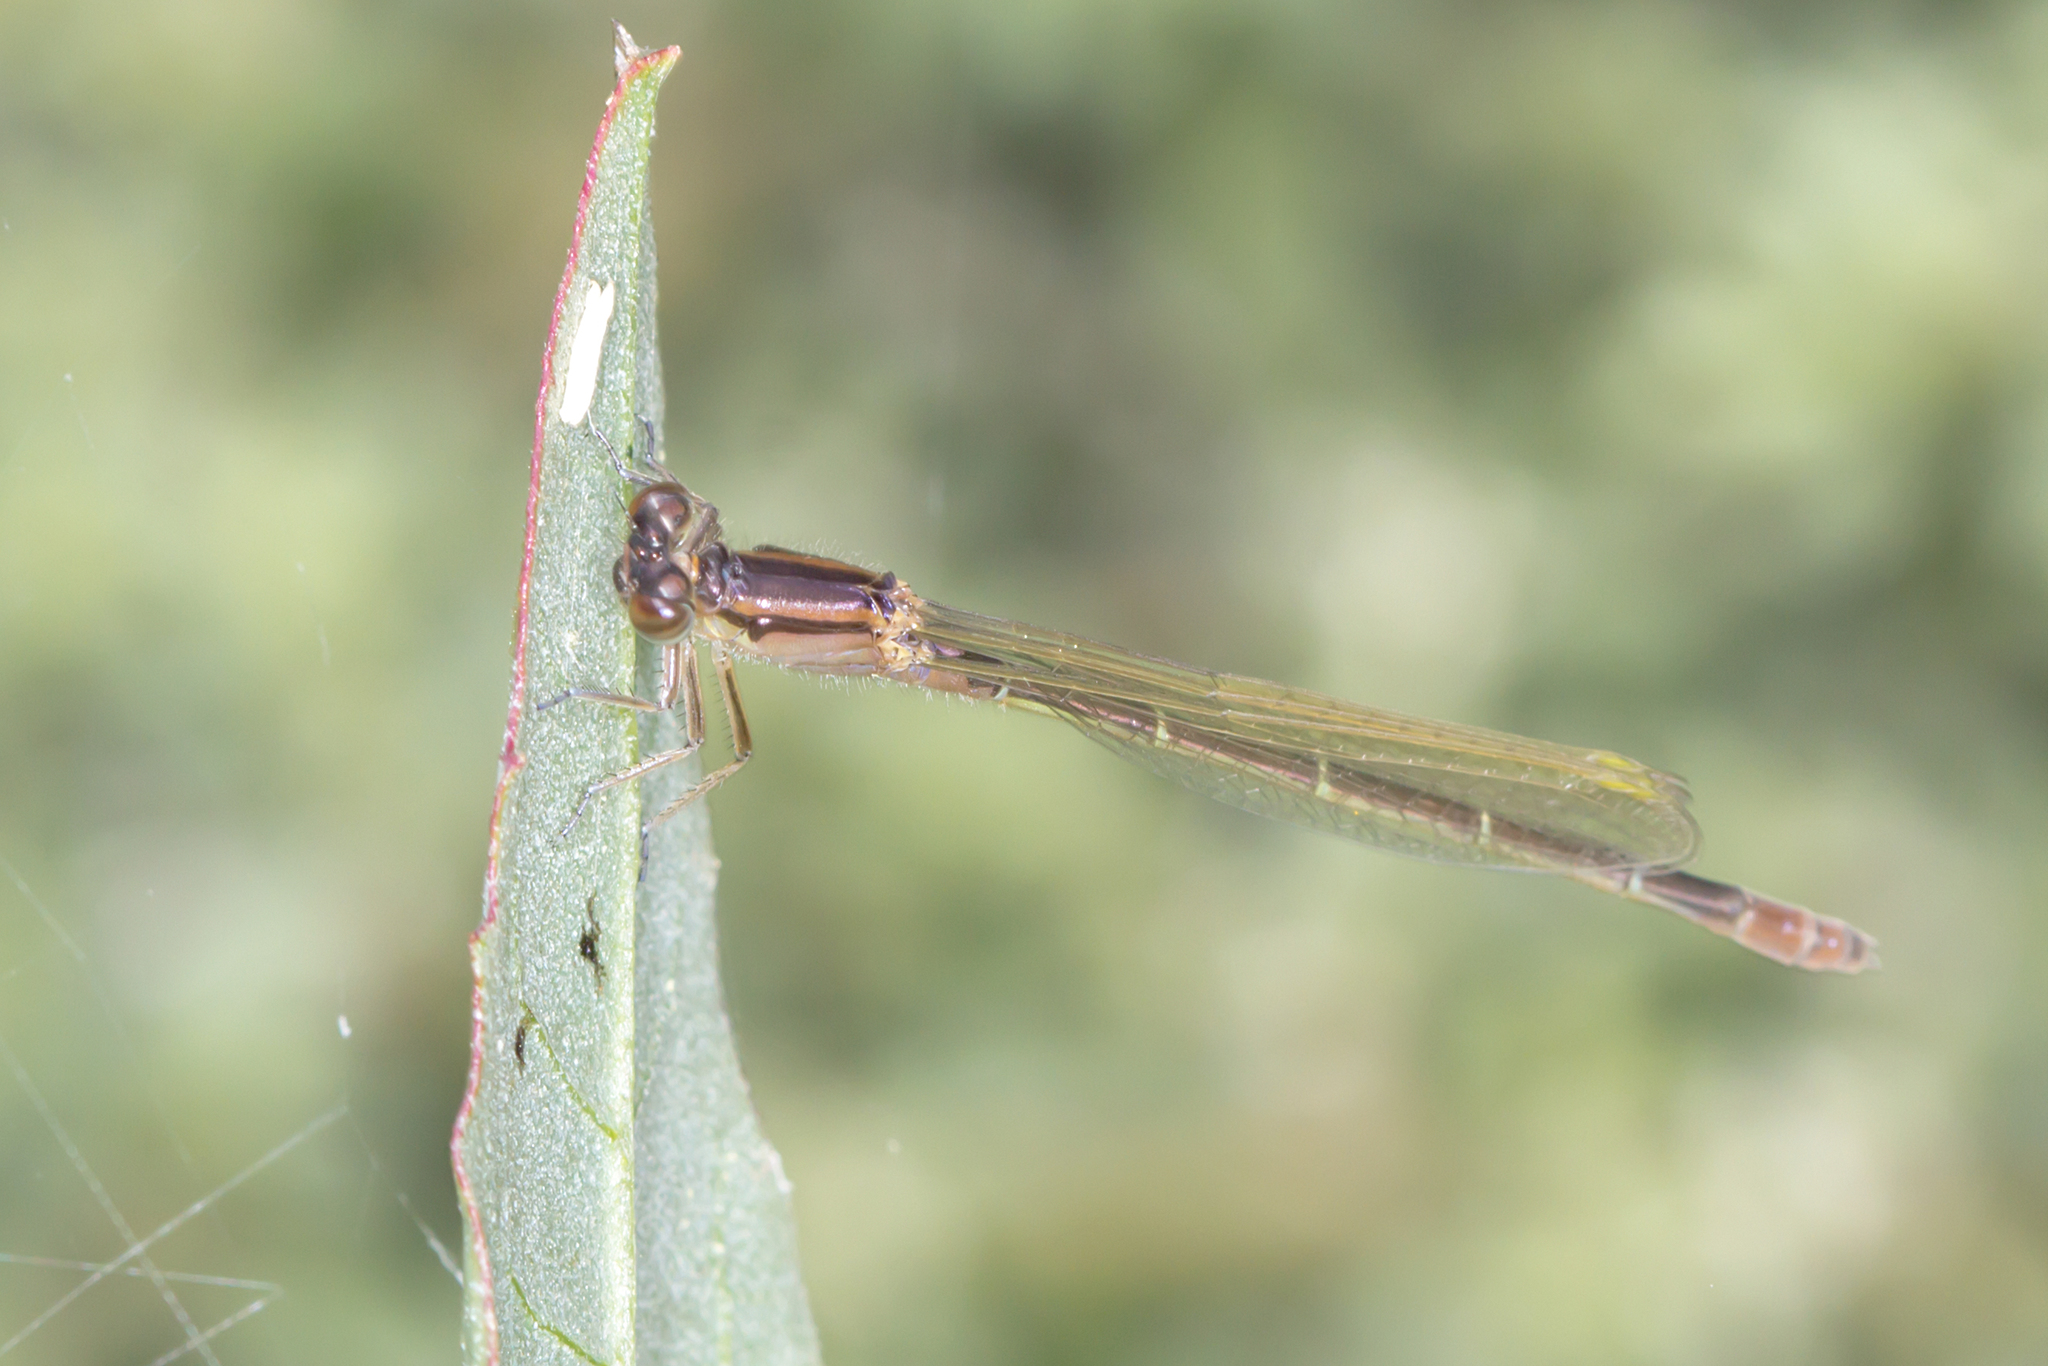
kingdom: Animalia
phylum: Arthropoda
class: Insecta
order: Odonata
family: Coenagrionidae
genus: Ischnura
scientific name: Ischnura heterosticta
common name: Common bluetail
